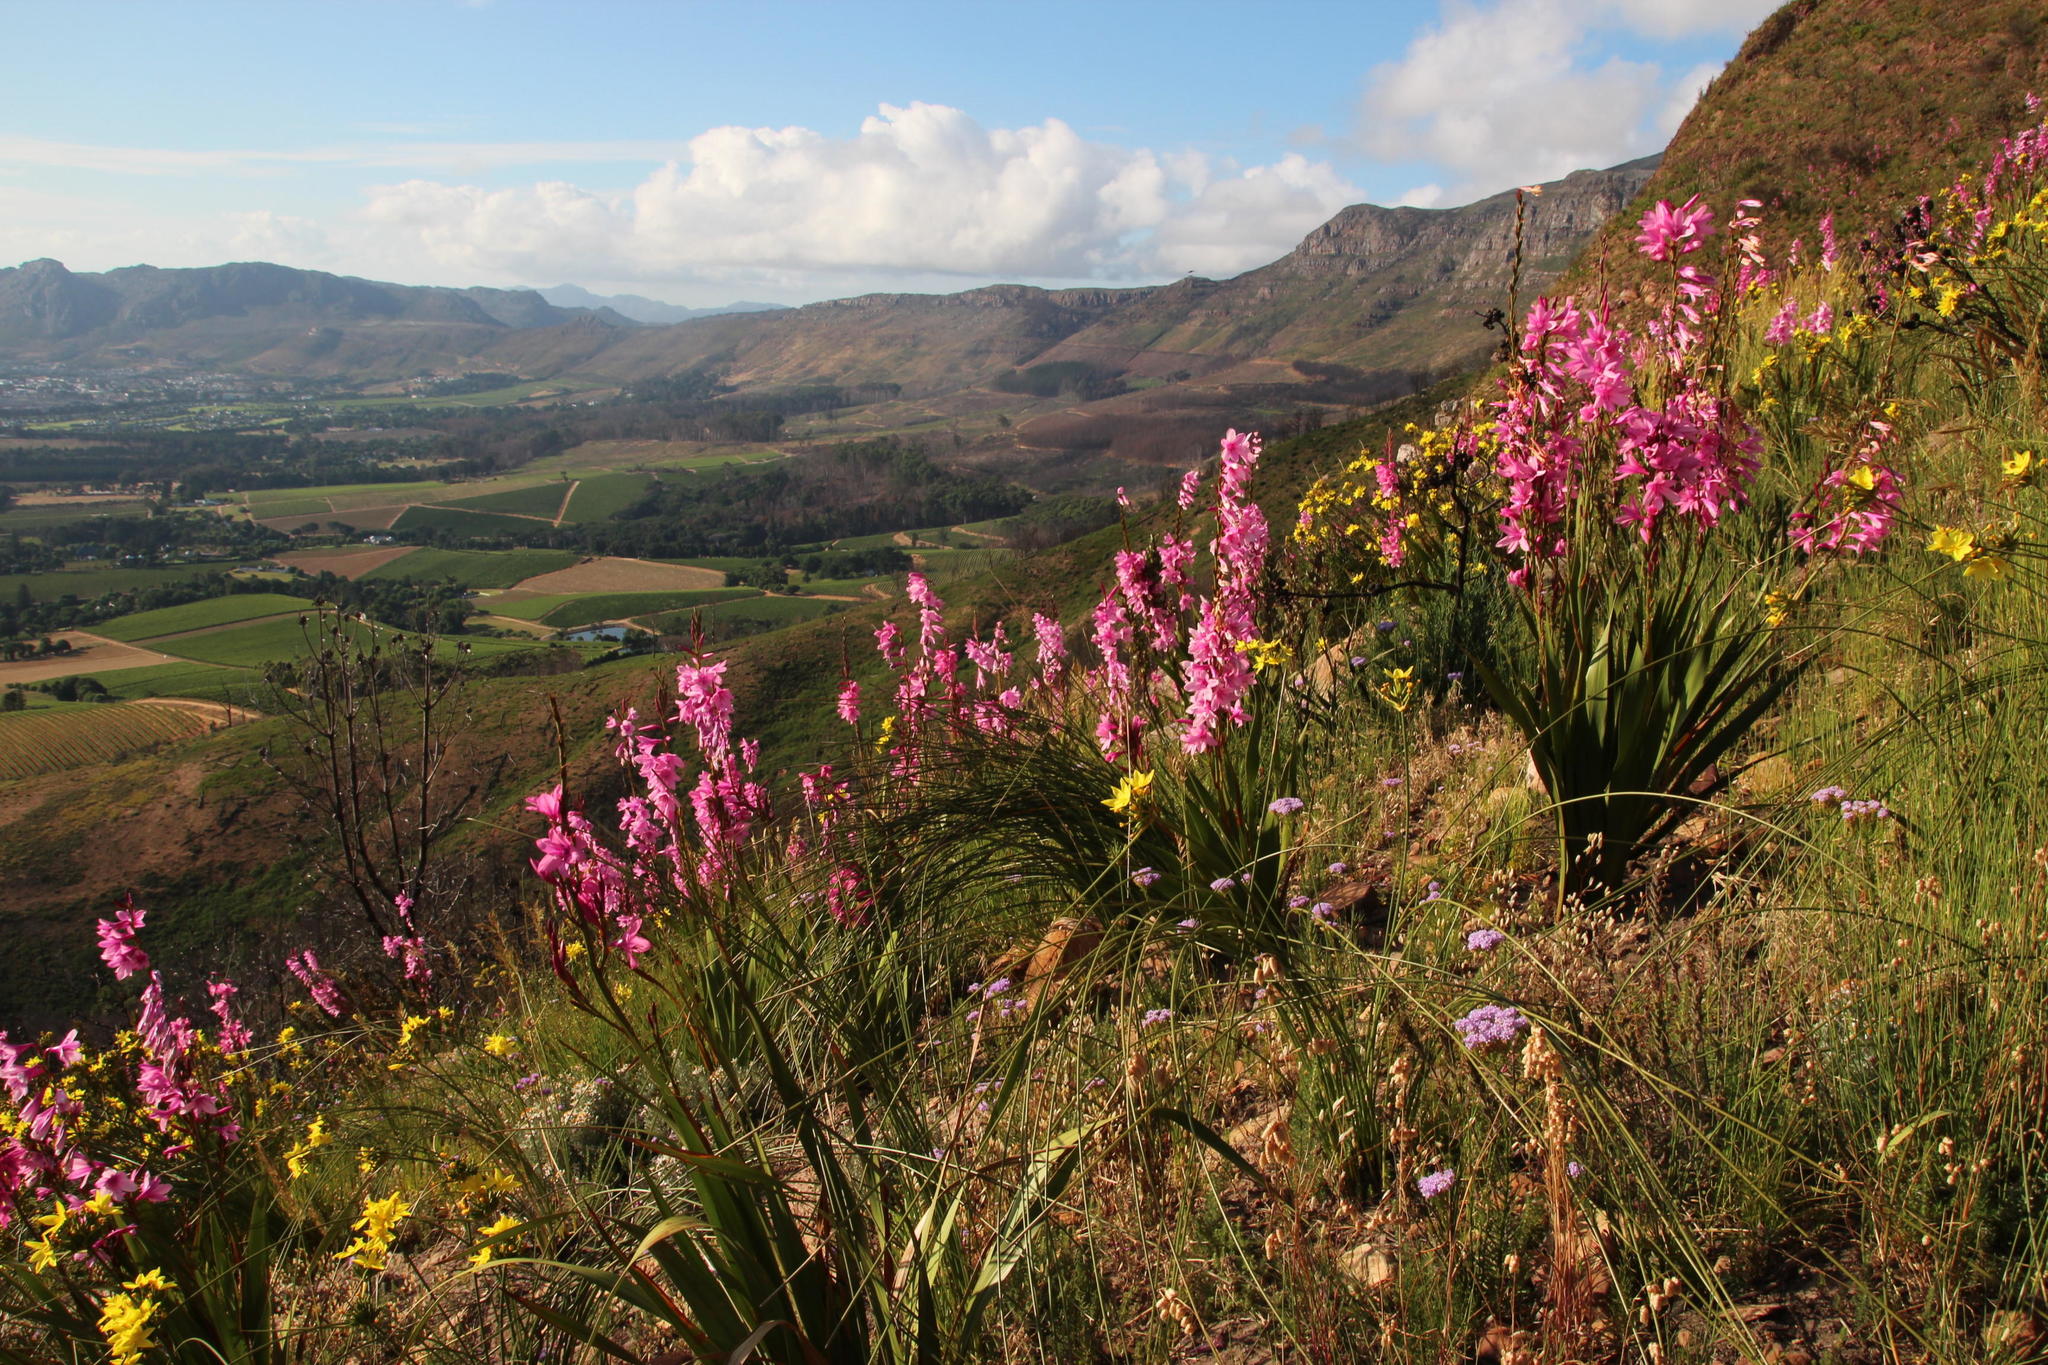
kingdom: Plantae
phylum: Tracheophyta
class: Liliopsida
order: Asparagales
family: Iridaceae
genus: Watsonia
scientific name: Watsonia borbonica
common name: Bugle-lily
